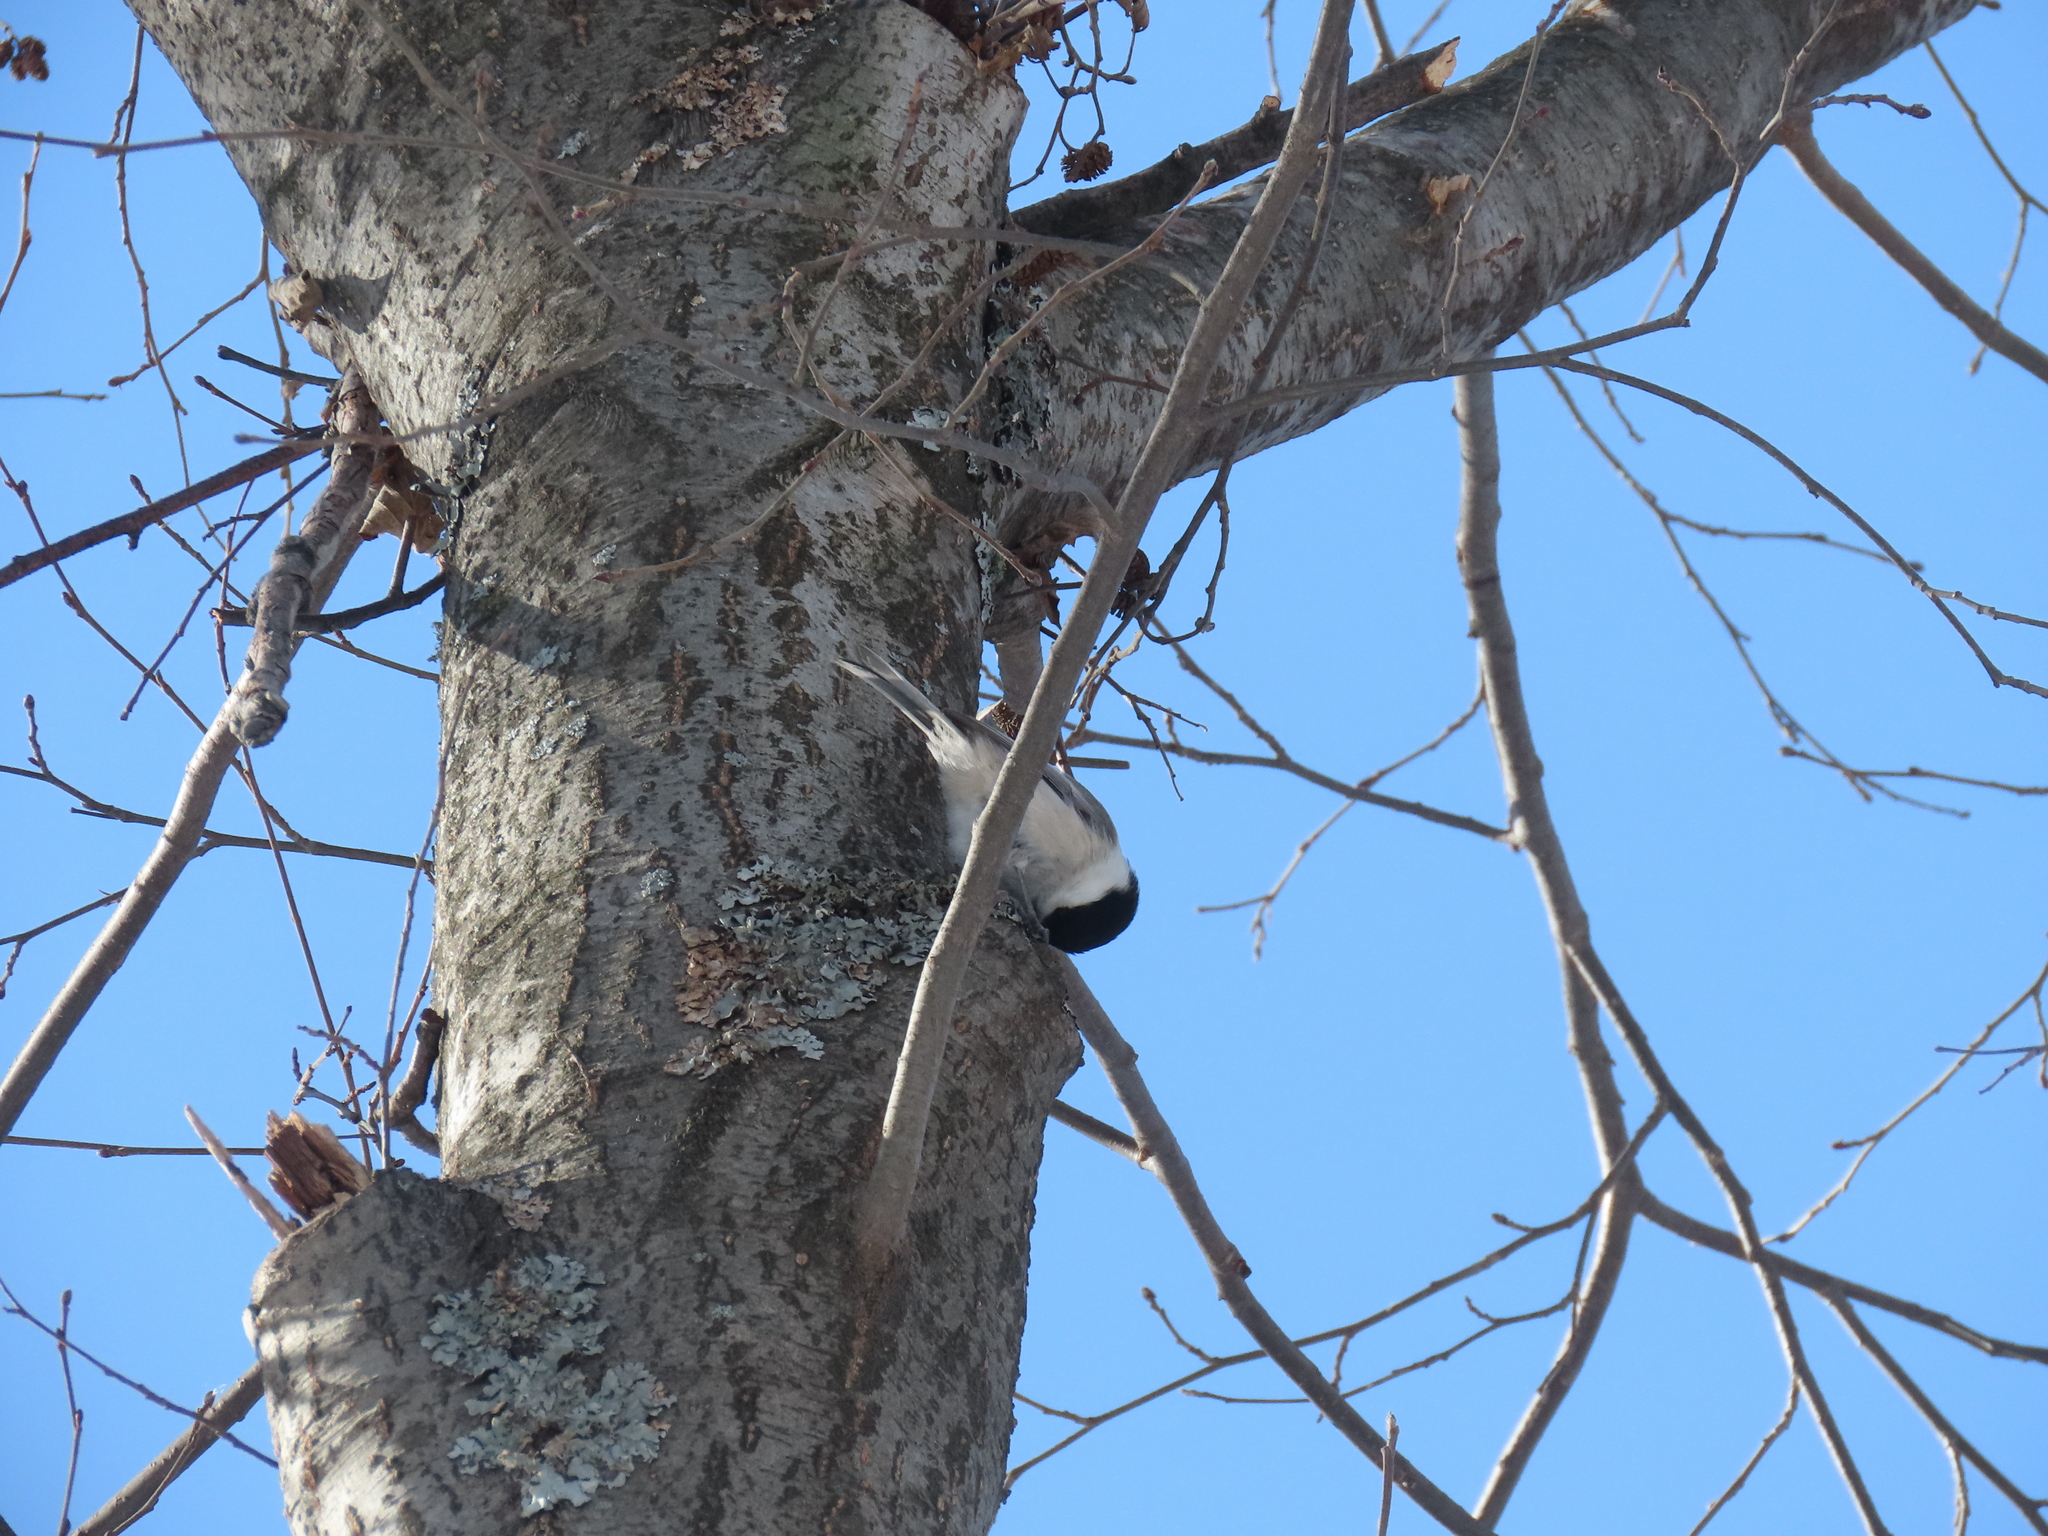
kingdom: Animalia
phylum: Chordata
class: Aves
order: Passeriformes
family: Paridae
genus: Poecile
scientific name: Poecile montanus
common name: Willow tit
